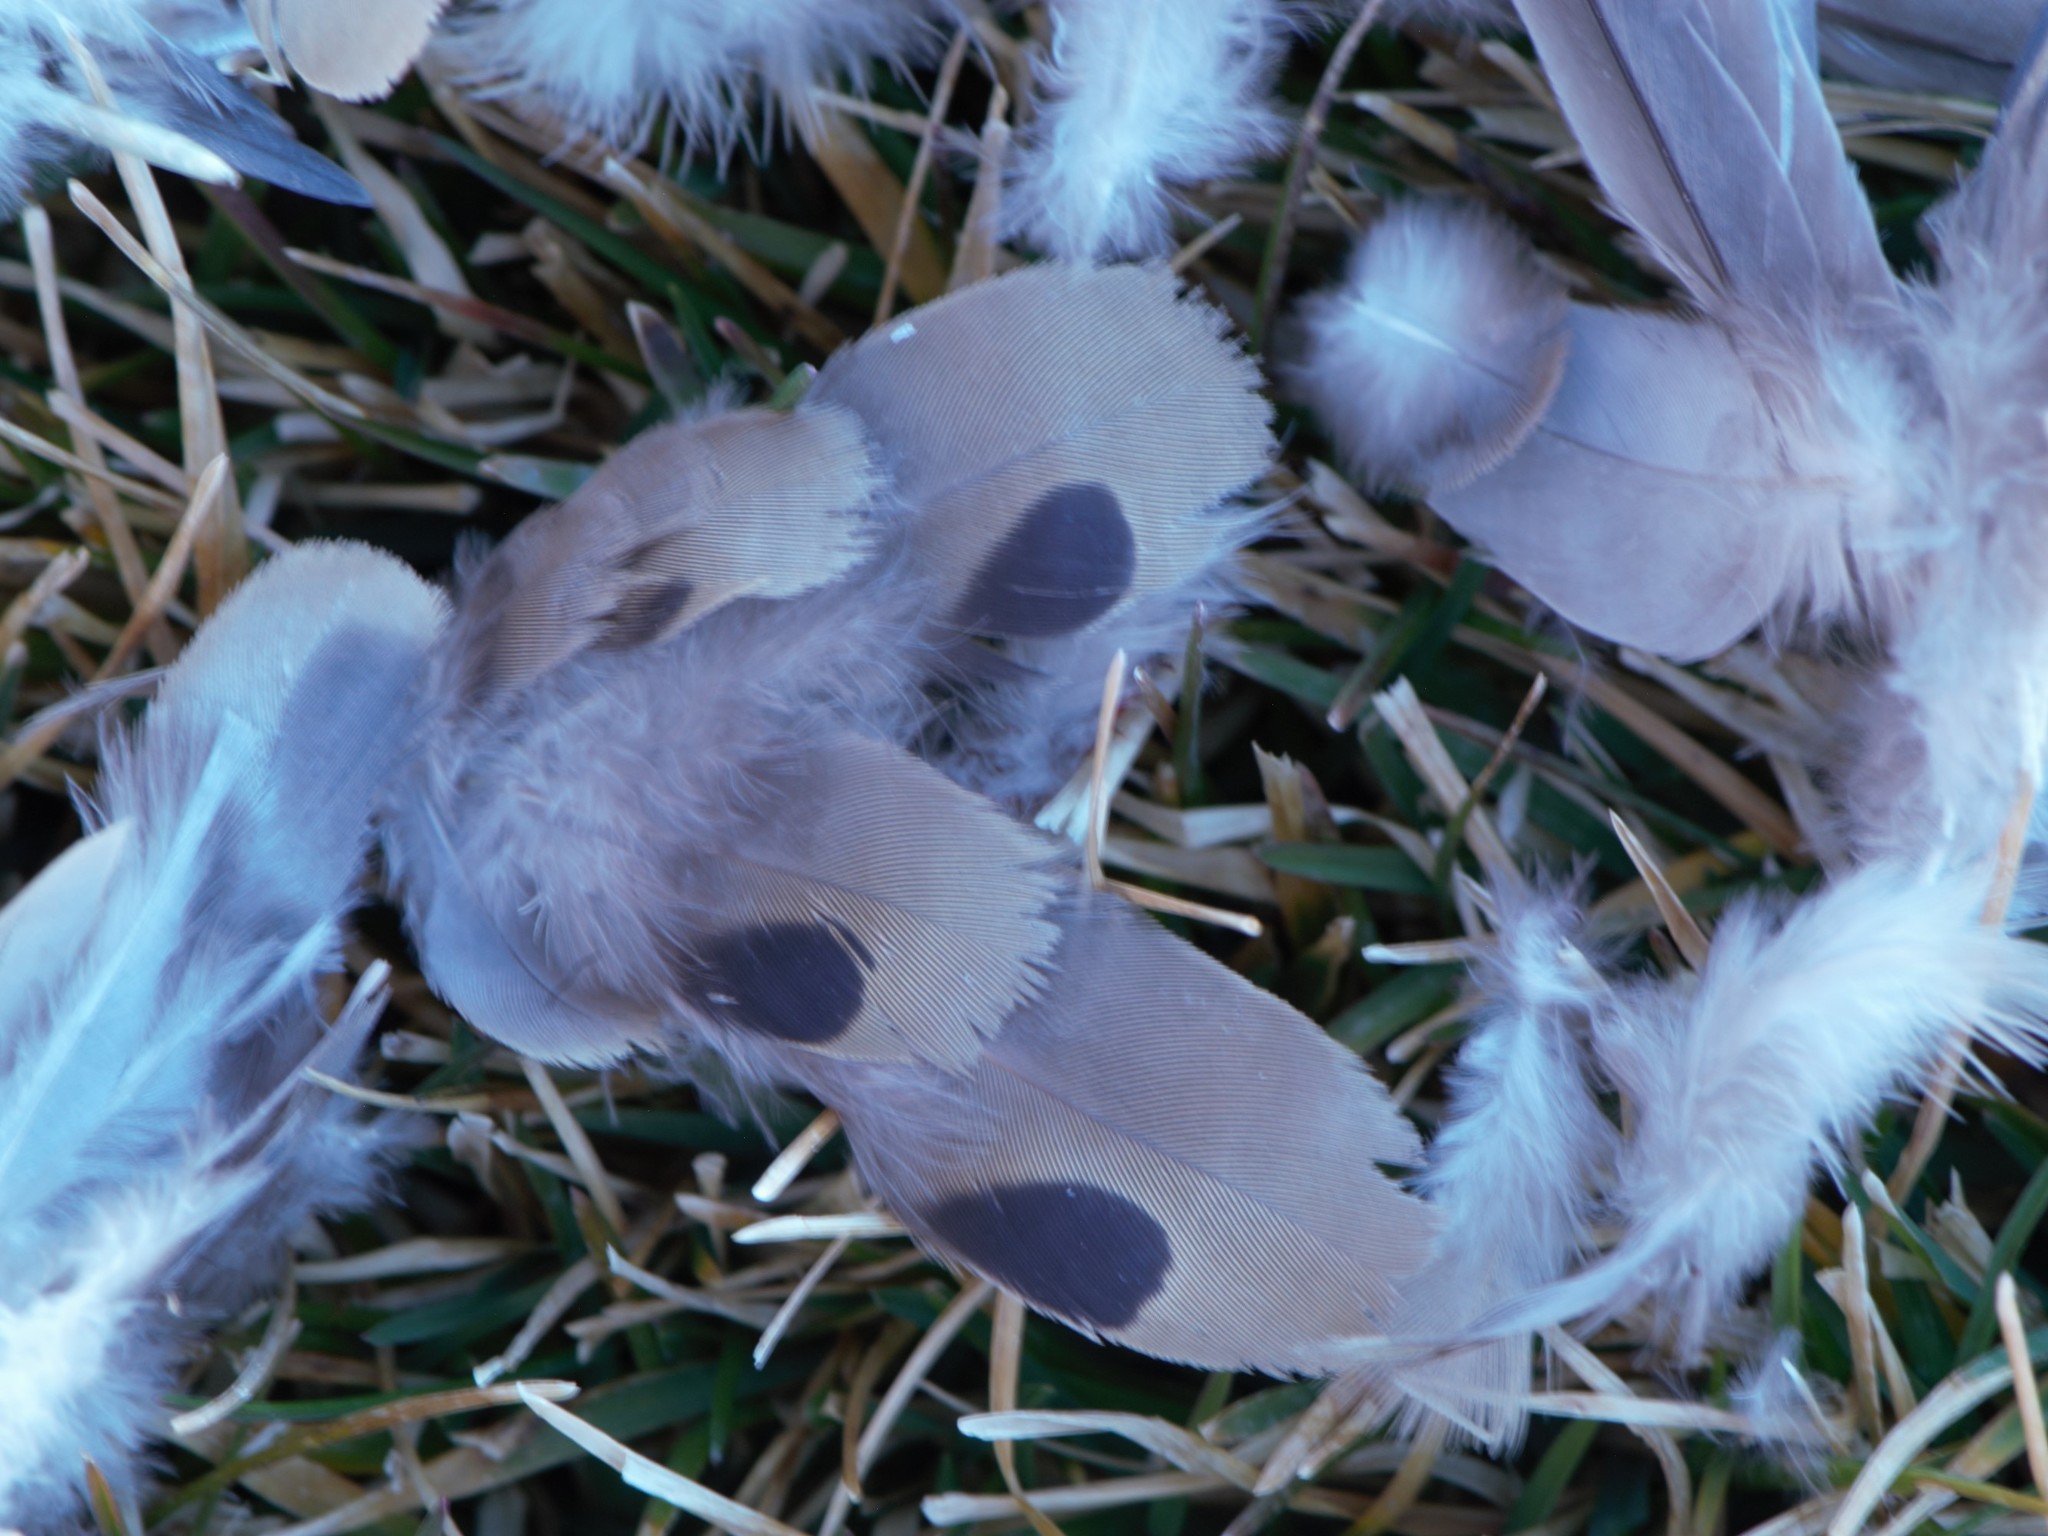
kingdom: Animalia
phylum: Chordata
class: Aves
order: Columbiformes
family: Columbidae
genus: Zenaida
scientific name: Zenaida macroura
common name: Mourning dove
